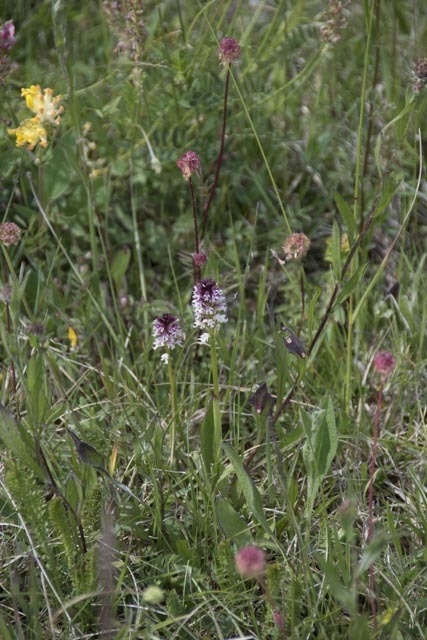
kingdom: Plantae
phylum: Tracheophyta
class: Liliopsida
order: Asparagales
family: Orchidaceae
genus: Neotinea
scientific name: Neotinea ustulata
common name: Burnt orchid
